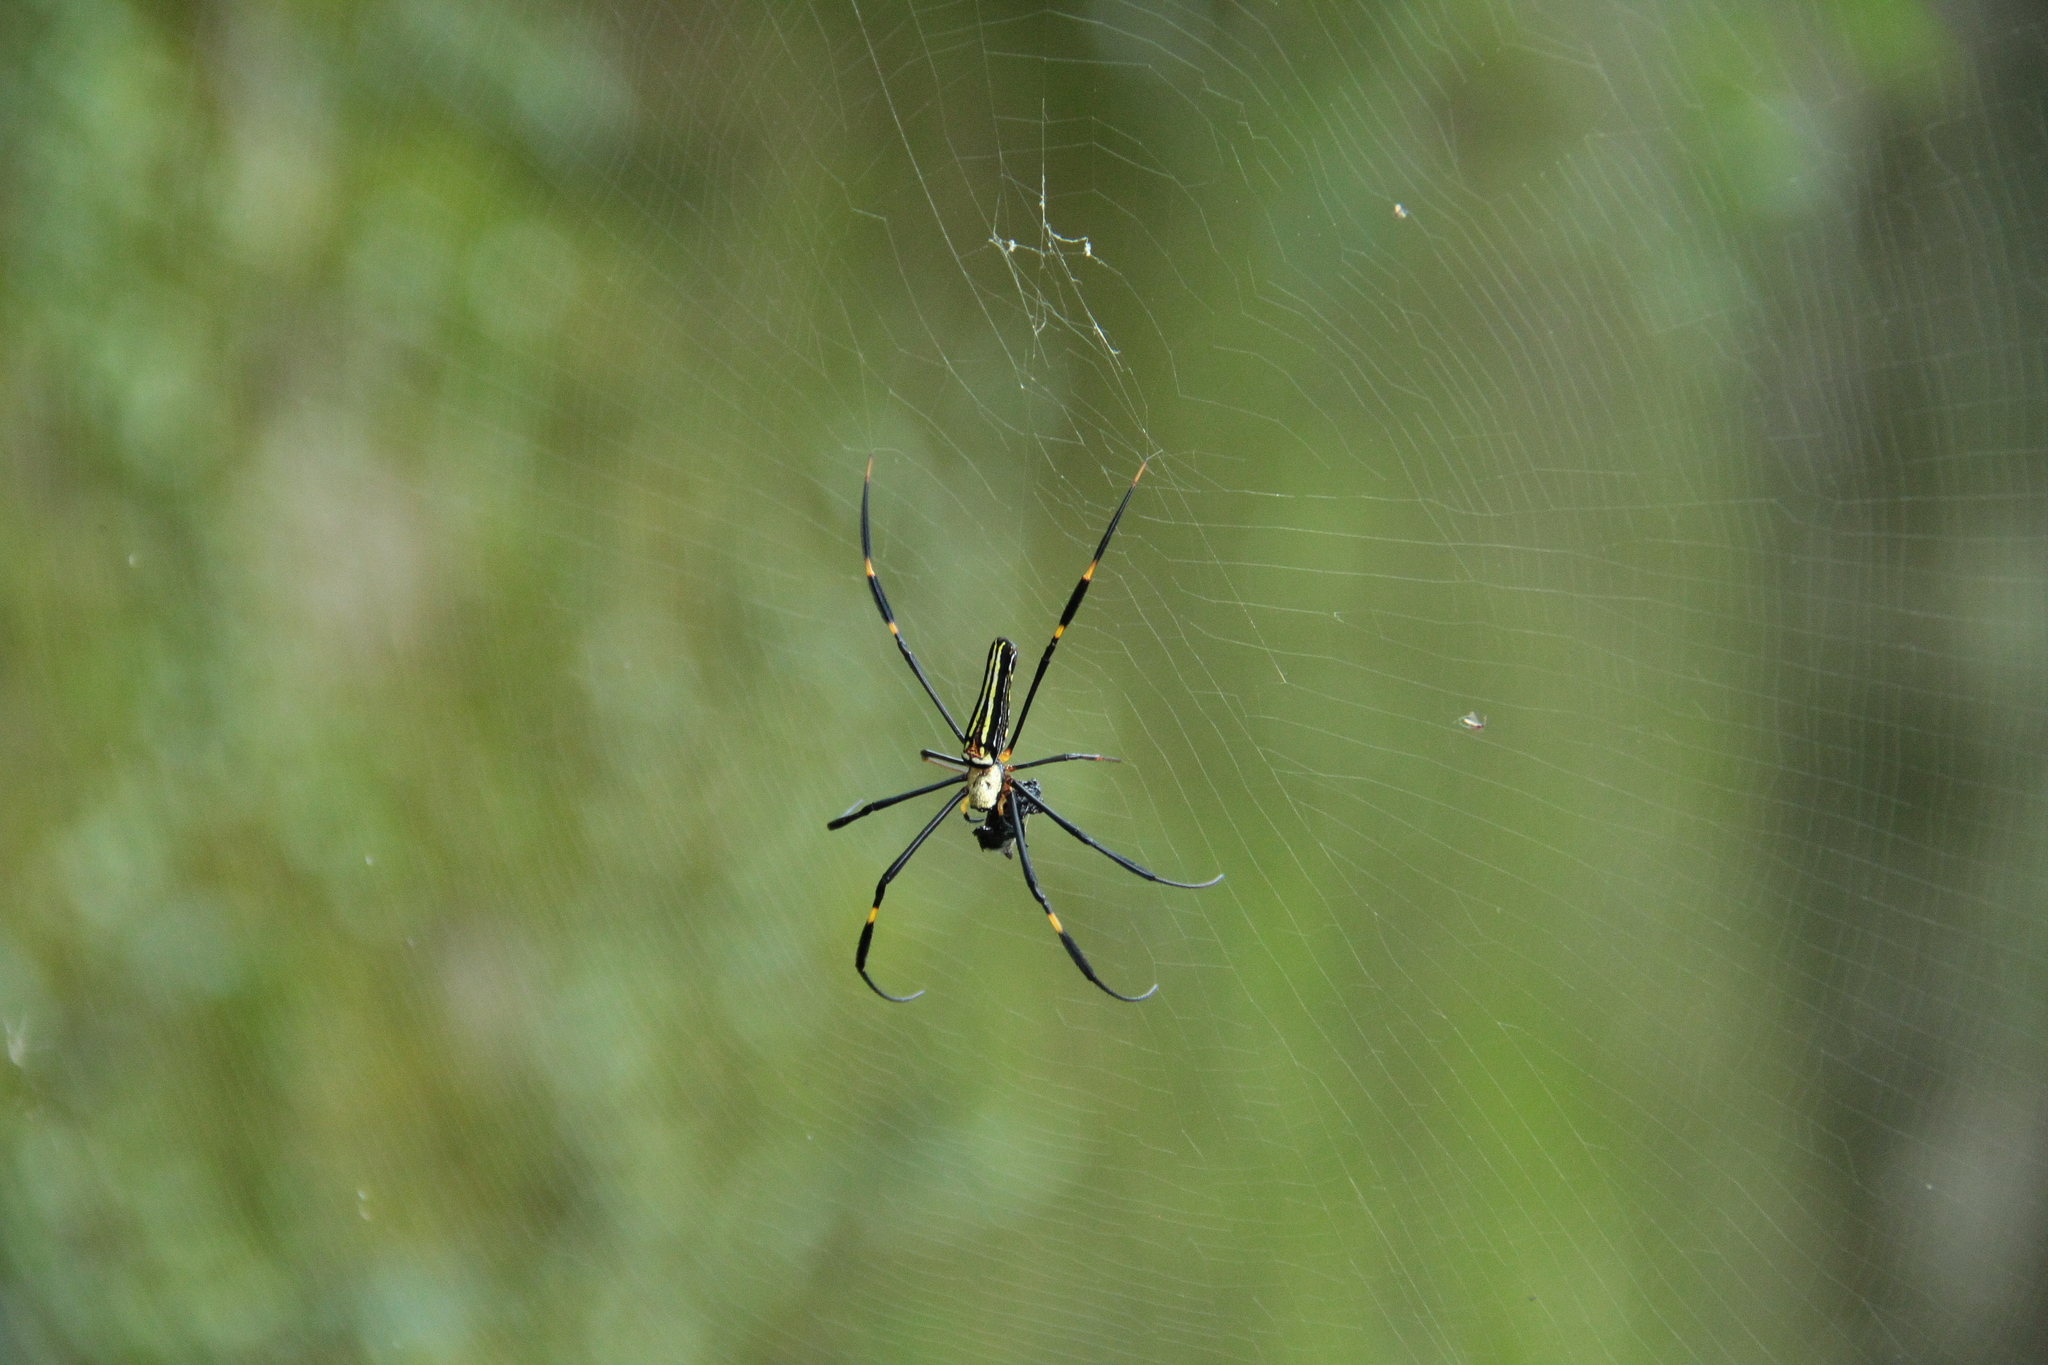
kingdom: Animalia
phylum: Arthropoda
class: Arachnida
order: Araneae
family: Araneidae
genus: Nephila
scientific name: Nephila pilipes
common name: Giant golden orb weaver
